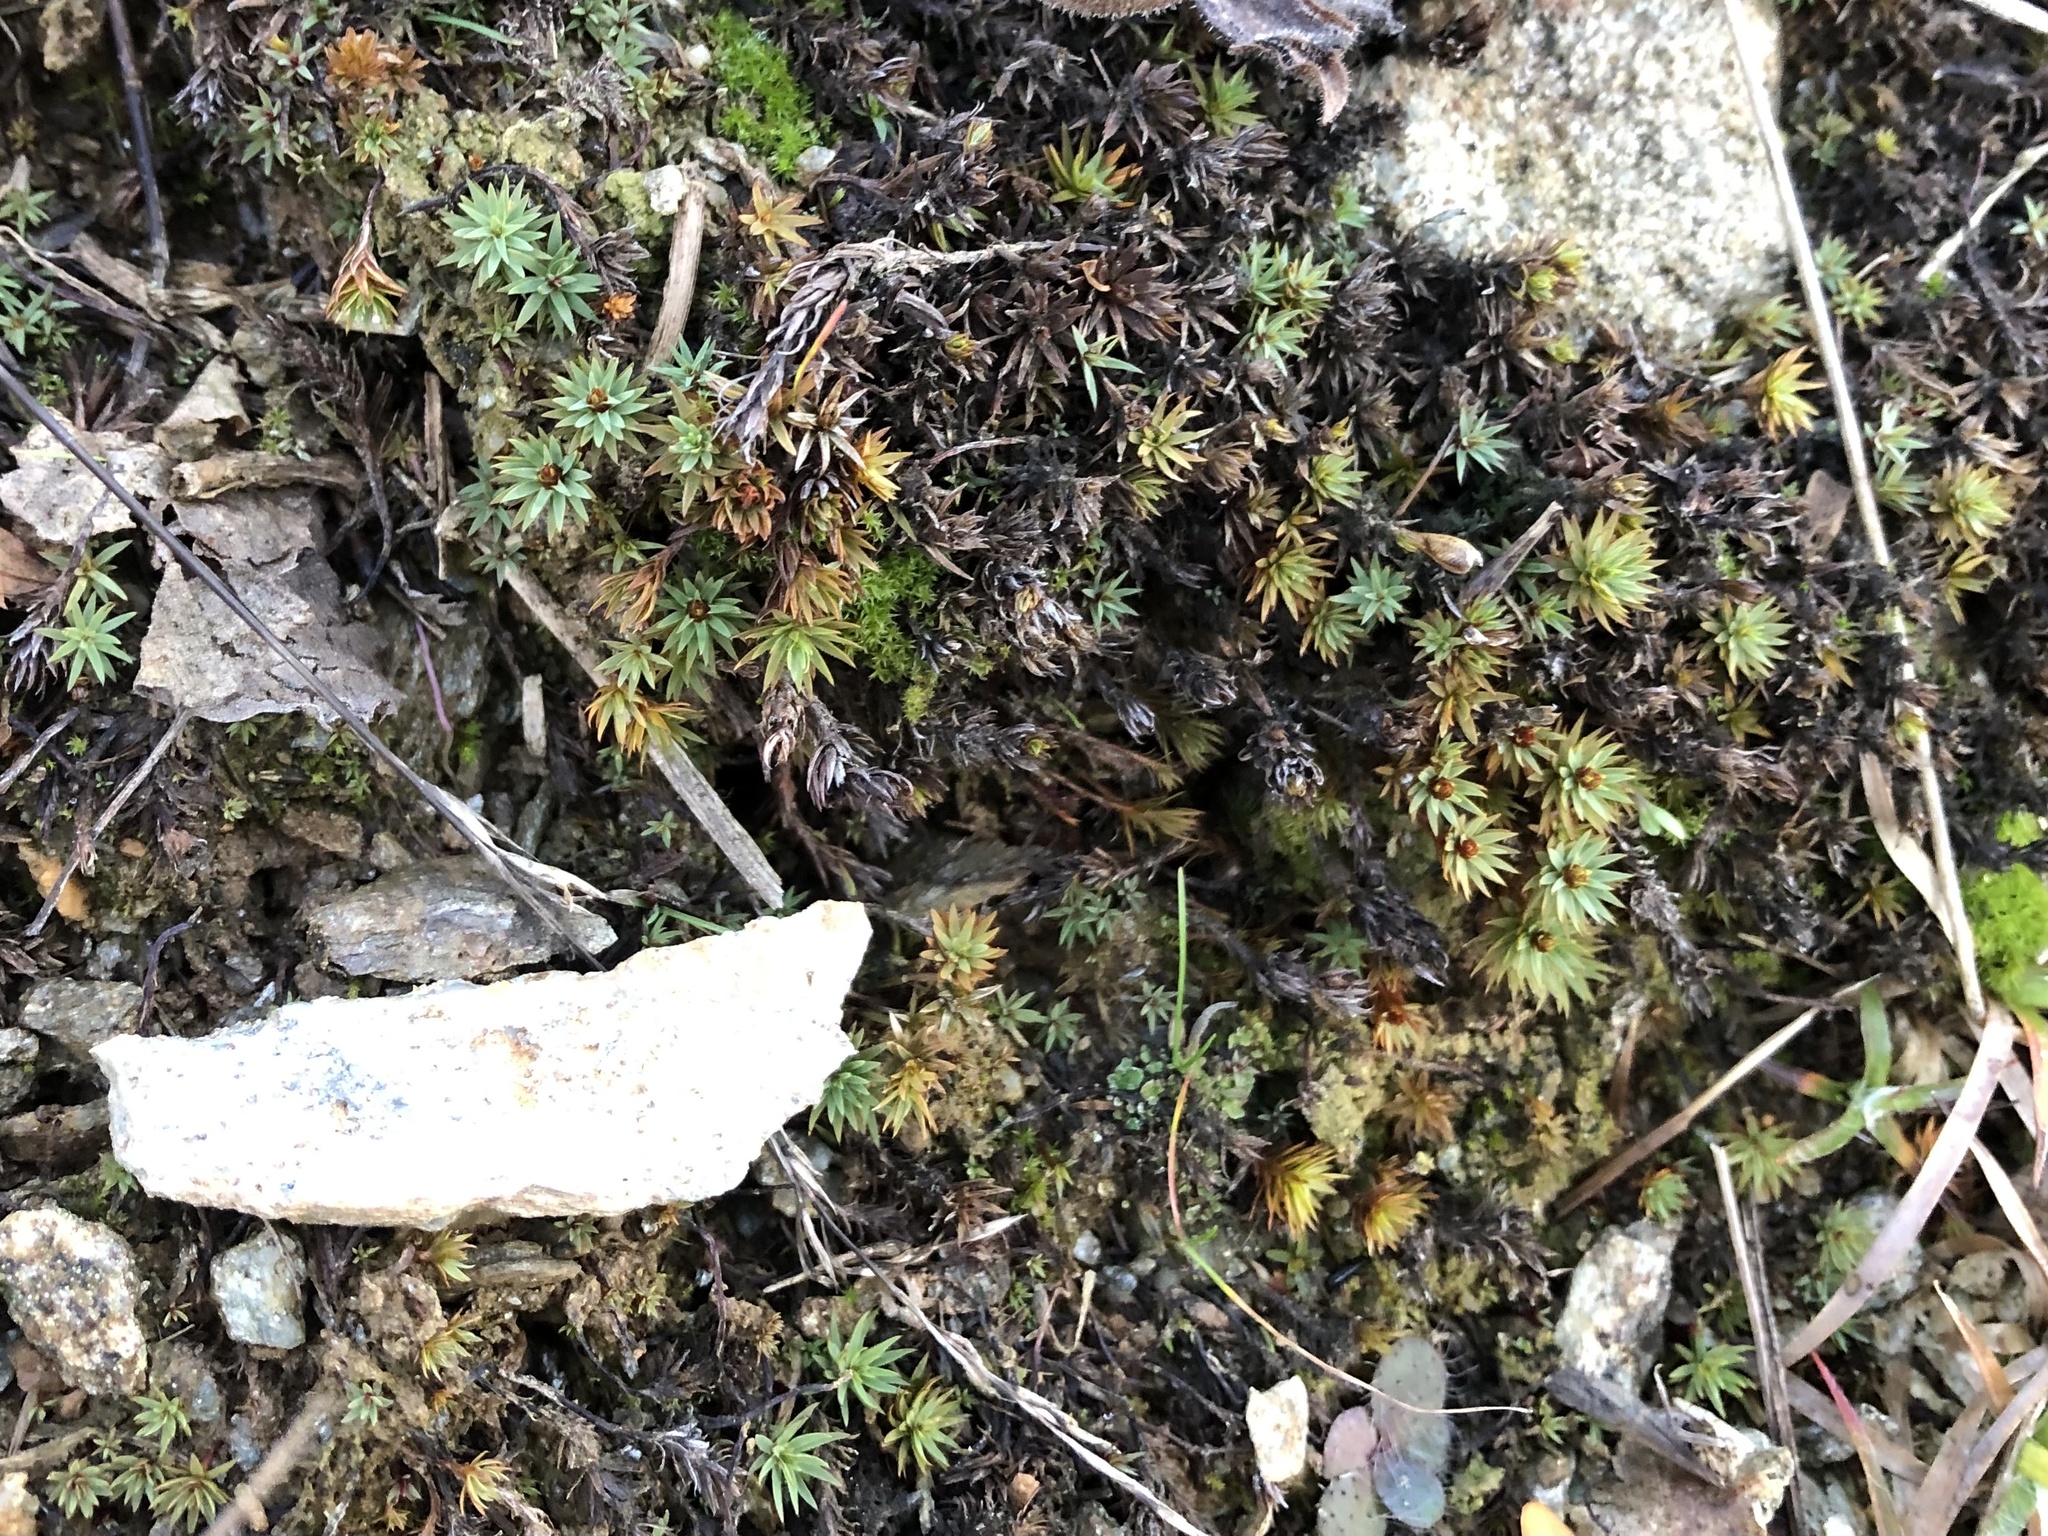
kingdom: Plantae
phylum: Bryophyta
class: Polytrichopsida
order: Polytrichales
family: Polytrichaceae
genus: Pogonatum
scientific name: Pogonatum urnigerum
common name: Urn hair moss
